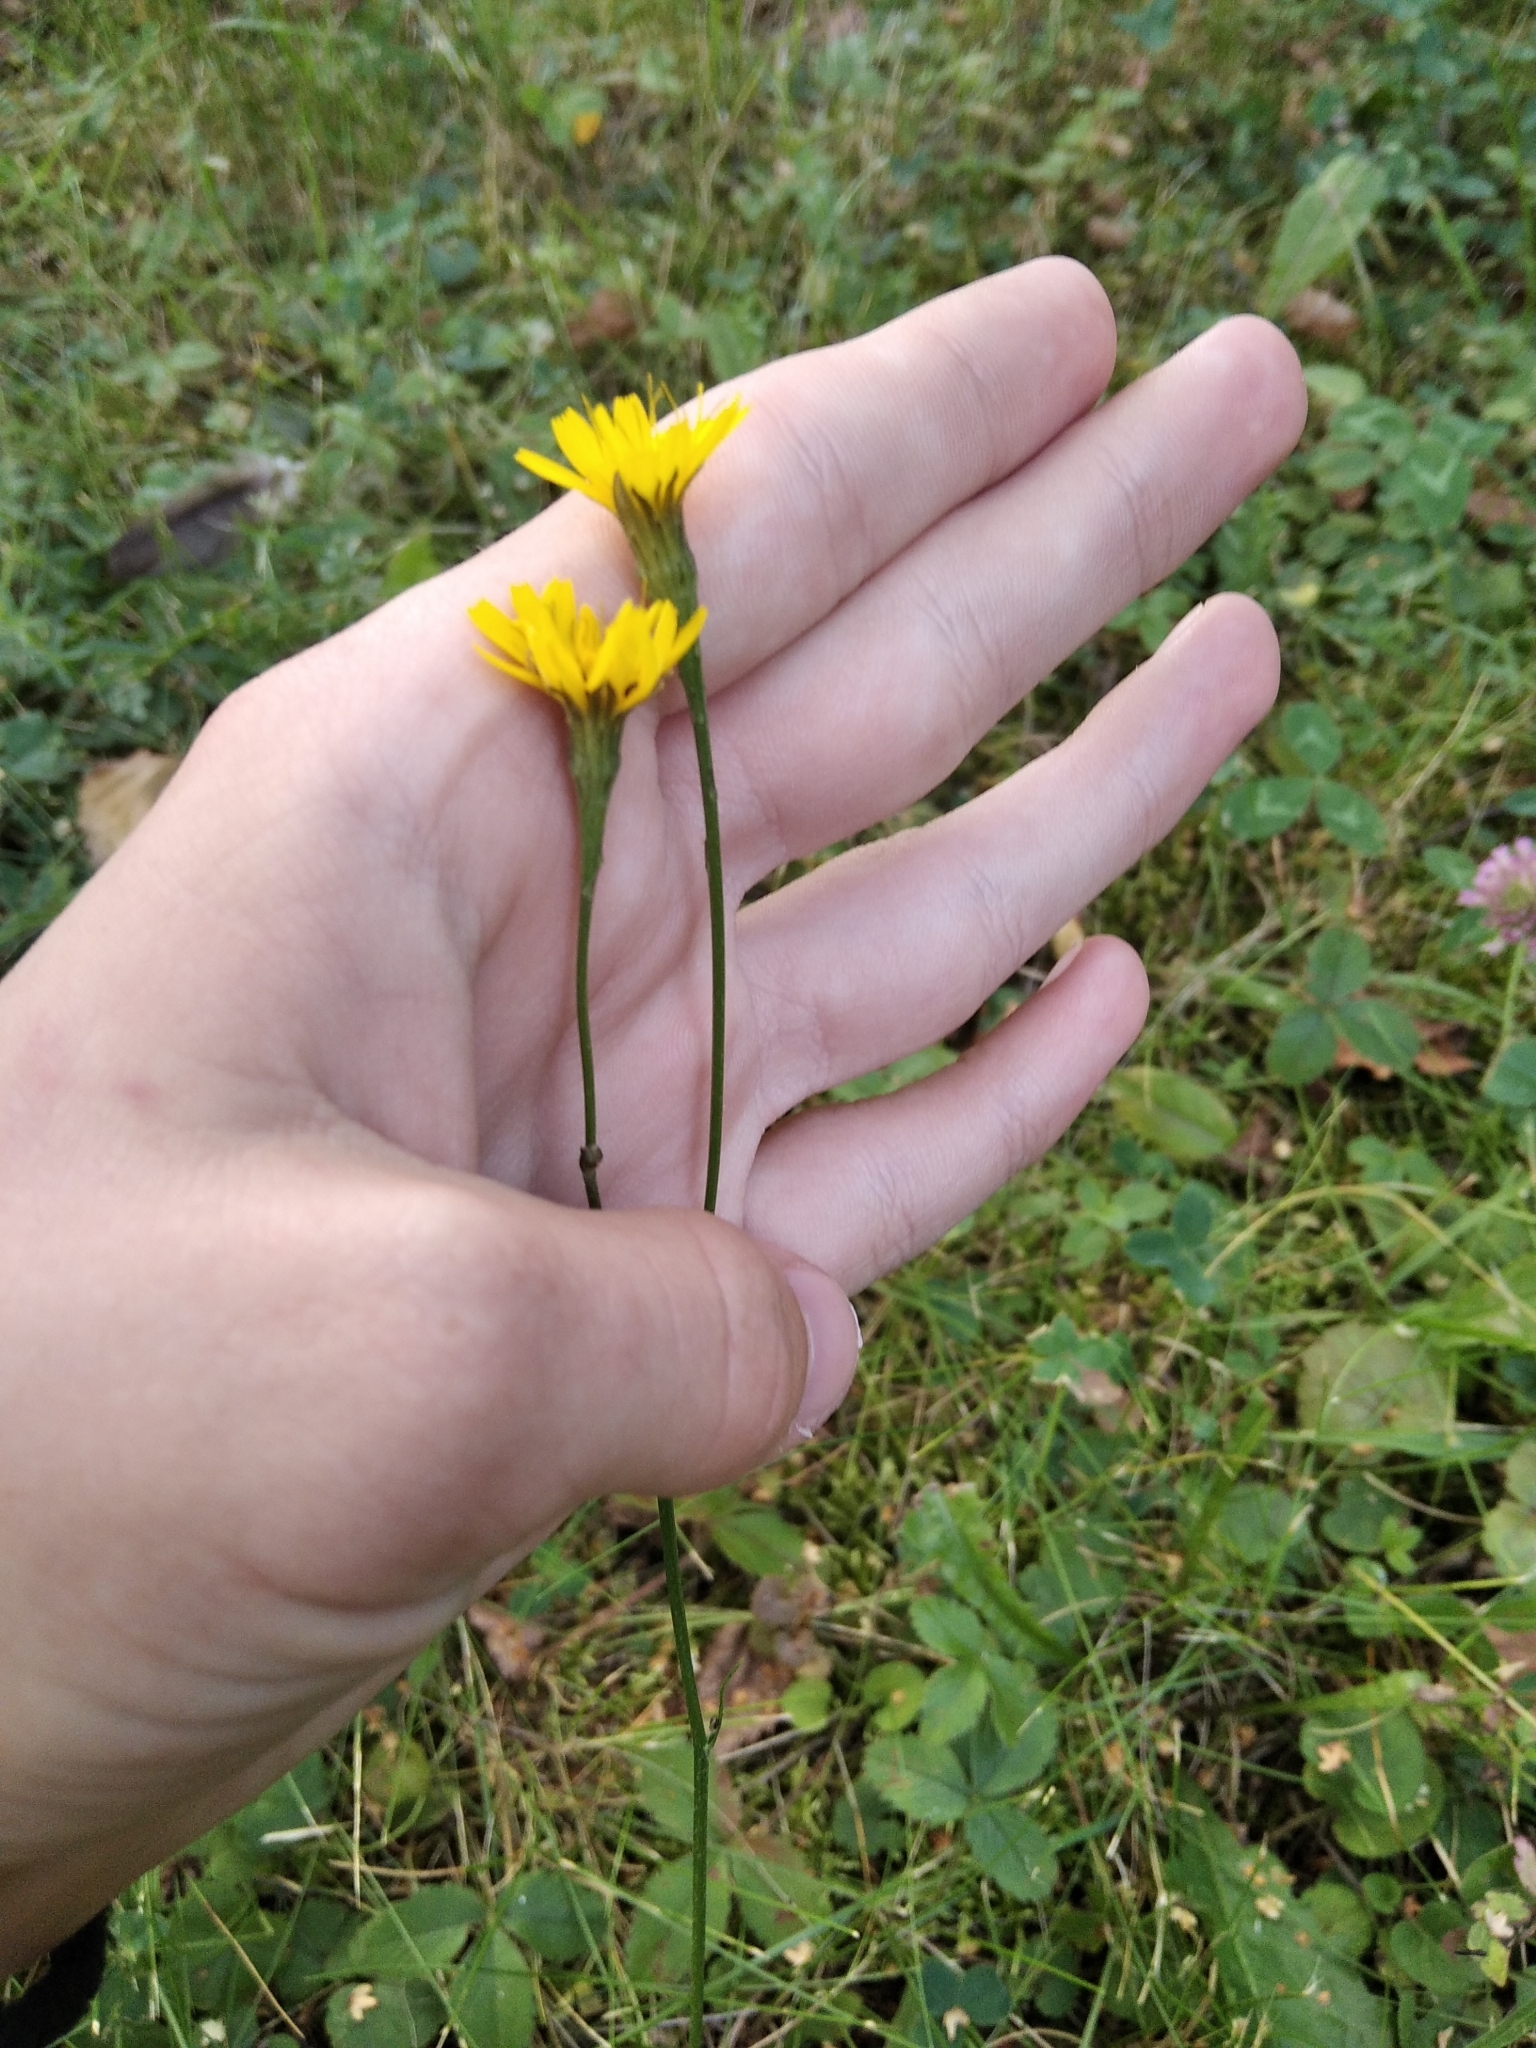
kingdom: Plantae
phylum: Tracheophyta
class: Magnoliopsida
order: Asterales
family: Asteraceae
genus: Scorzoneroides
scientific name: Scorzoneroides autumnalis
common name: Autumn hawkbit
